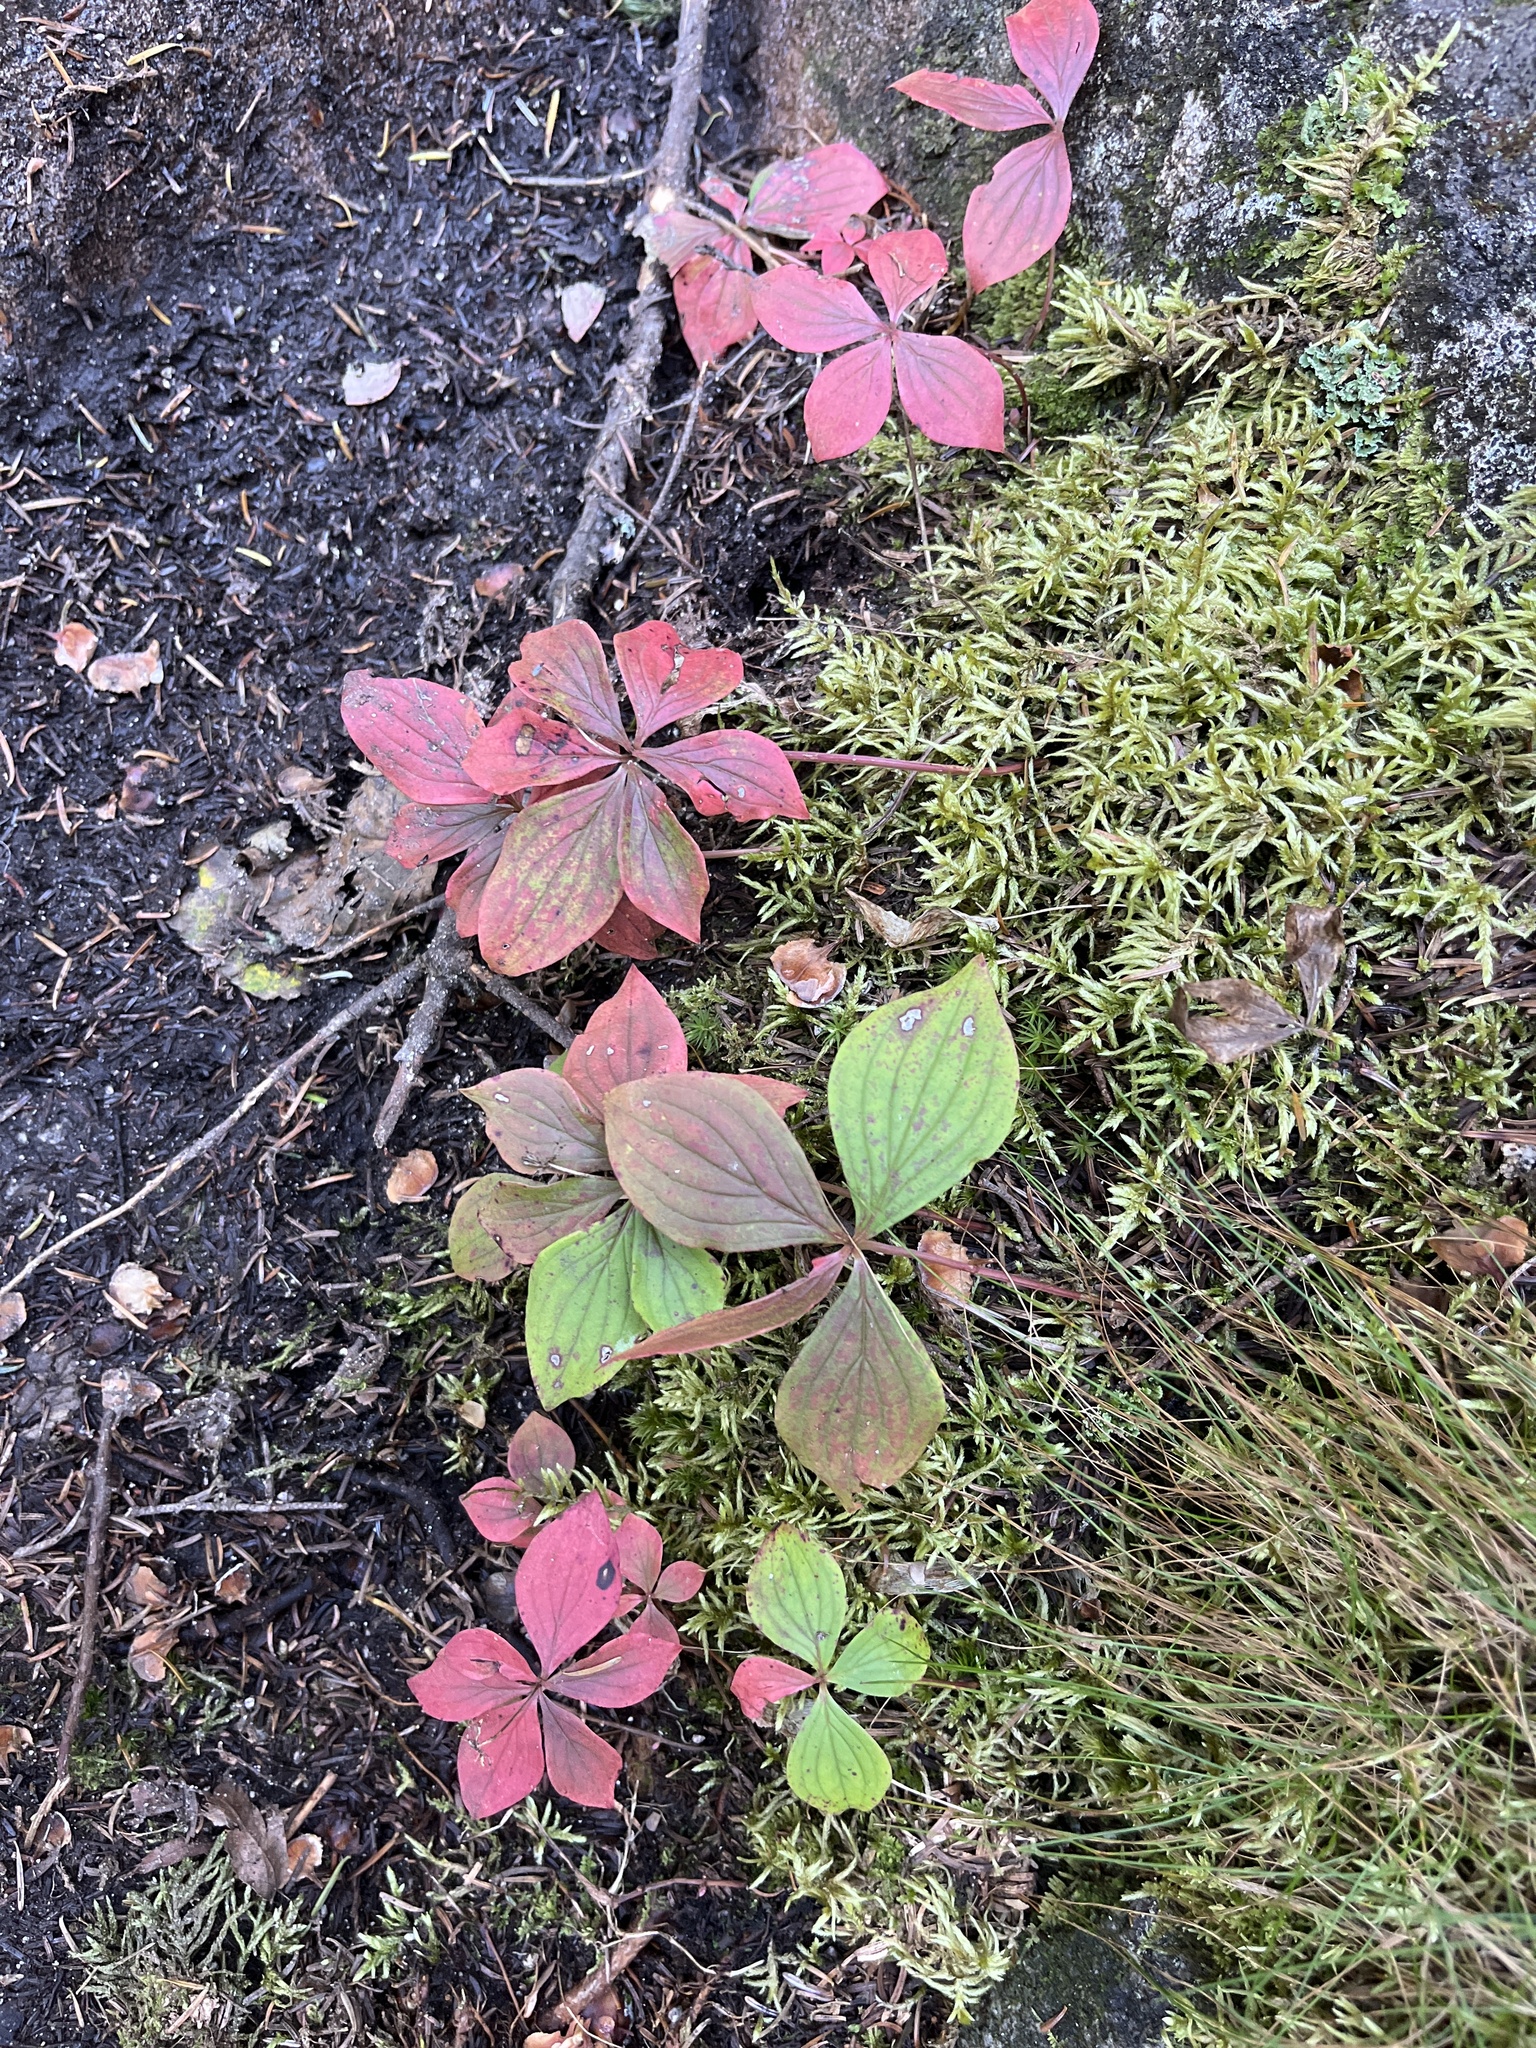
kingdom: Plantae
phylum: Tracheophyta
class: Magnoliopsida
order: Cornales
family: Cornaceae
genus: Cornus
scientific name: Cornus canadensis
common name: Creeping dogwood
